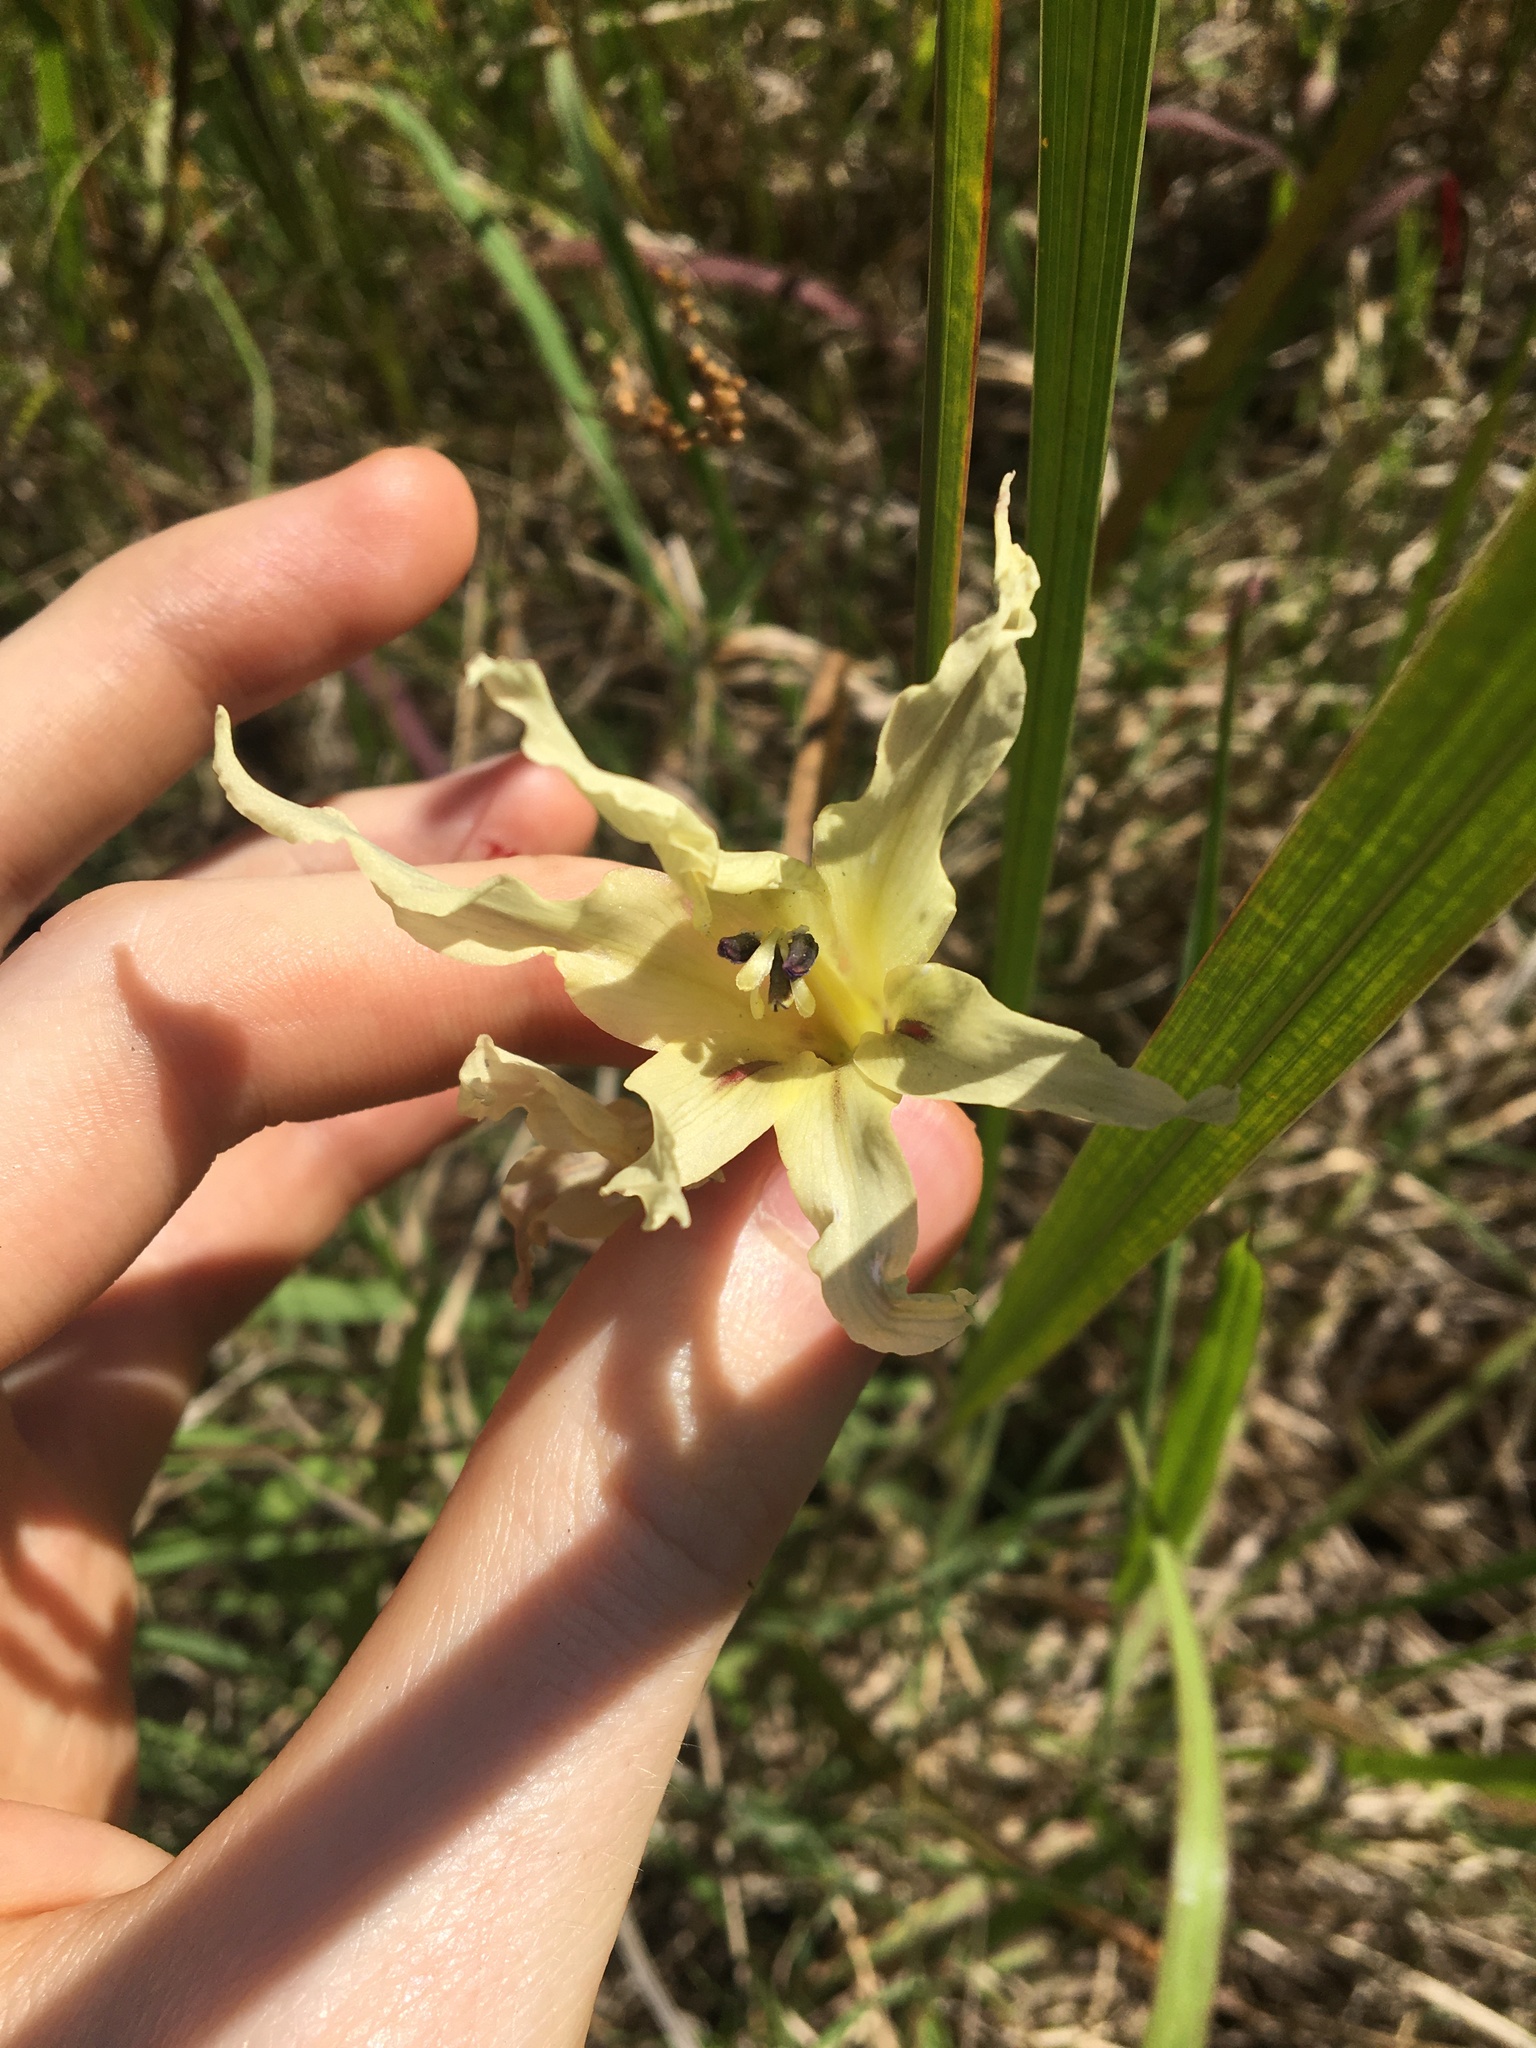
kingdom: Plantae
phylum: Tracheophyta
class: Liliopsida
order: Asparagales
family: Iridaceae
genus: Gladiolus
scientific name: Gladiolus undulatus
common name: Large painted-lady
